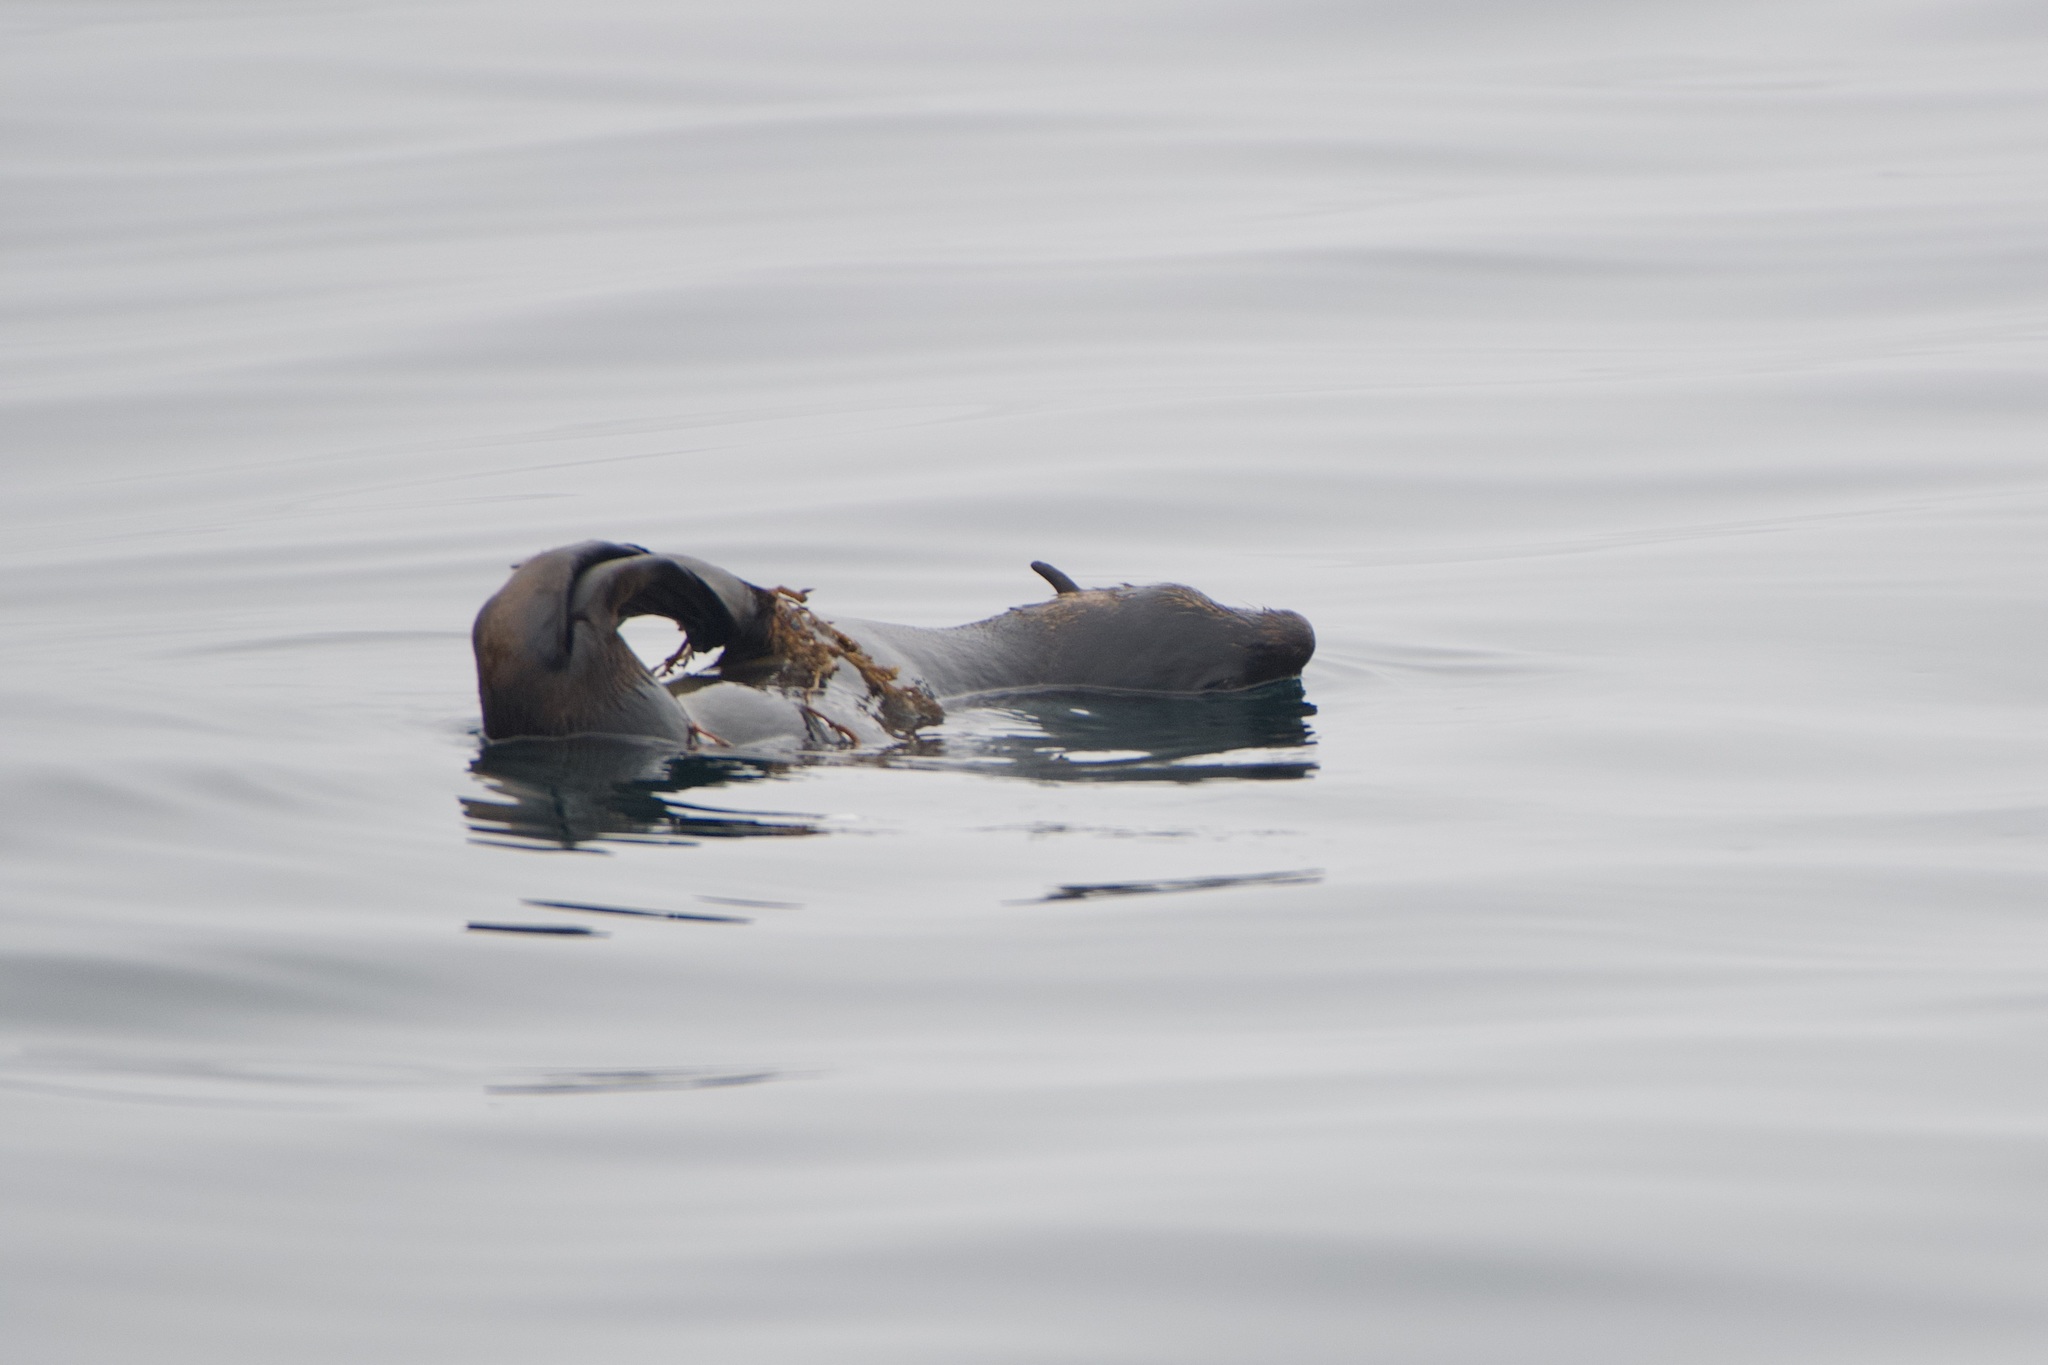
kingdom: Animalia
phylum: Chordata
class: Mammalia
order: Carnivora
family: Otariidae
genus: Callorhinus
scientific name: Callorhinus ursinus
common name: Northern fur seal
